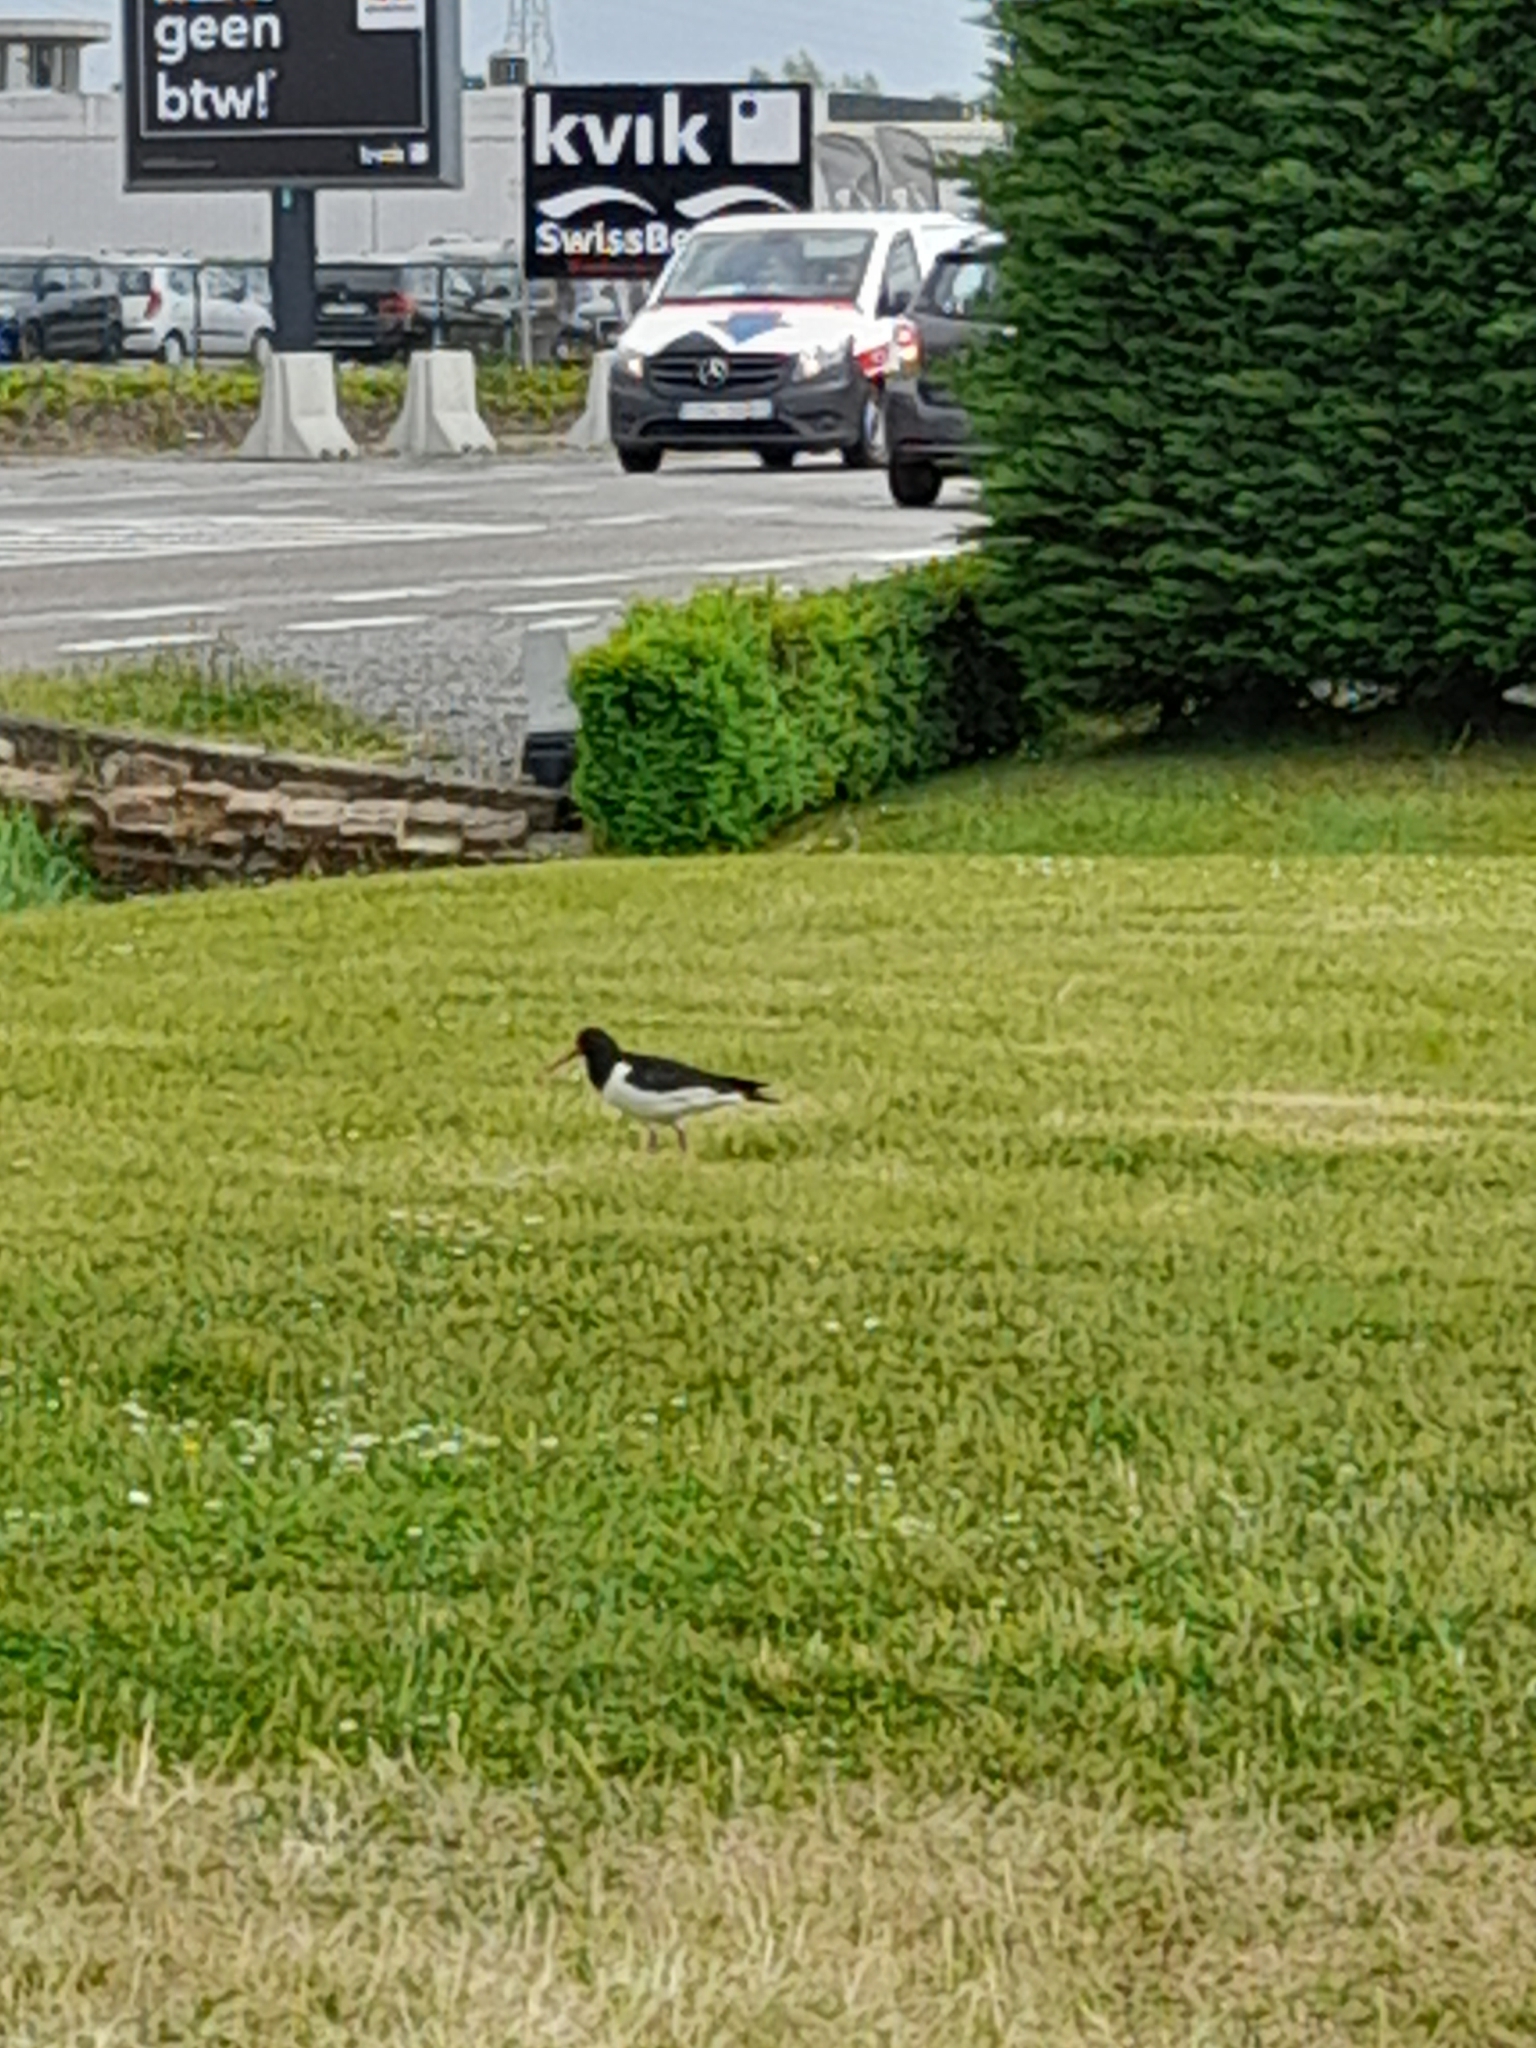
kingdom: Animalia
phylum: Chordata
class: Aves
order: Charadriiformes
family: Haematopodidae
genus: Haematopus
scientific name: Haematopus ostralegus
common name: Eurasian oystercatcher
